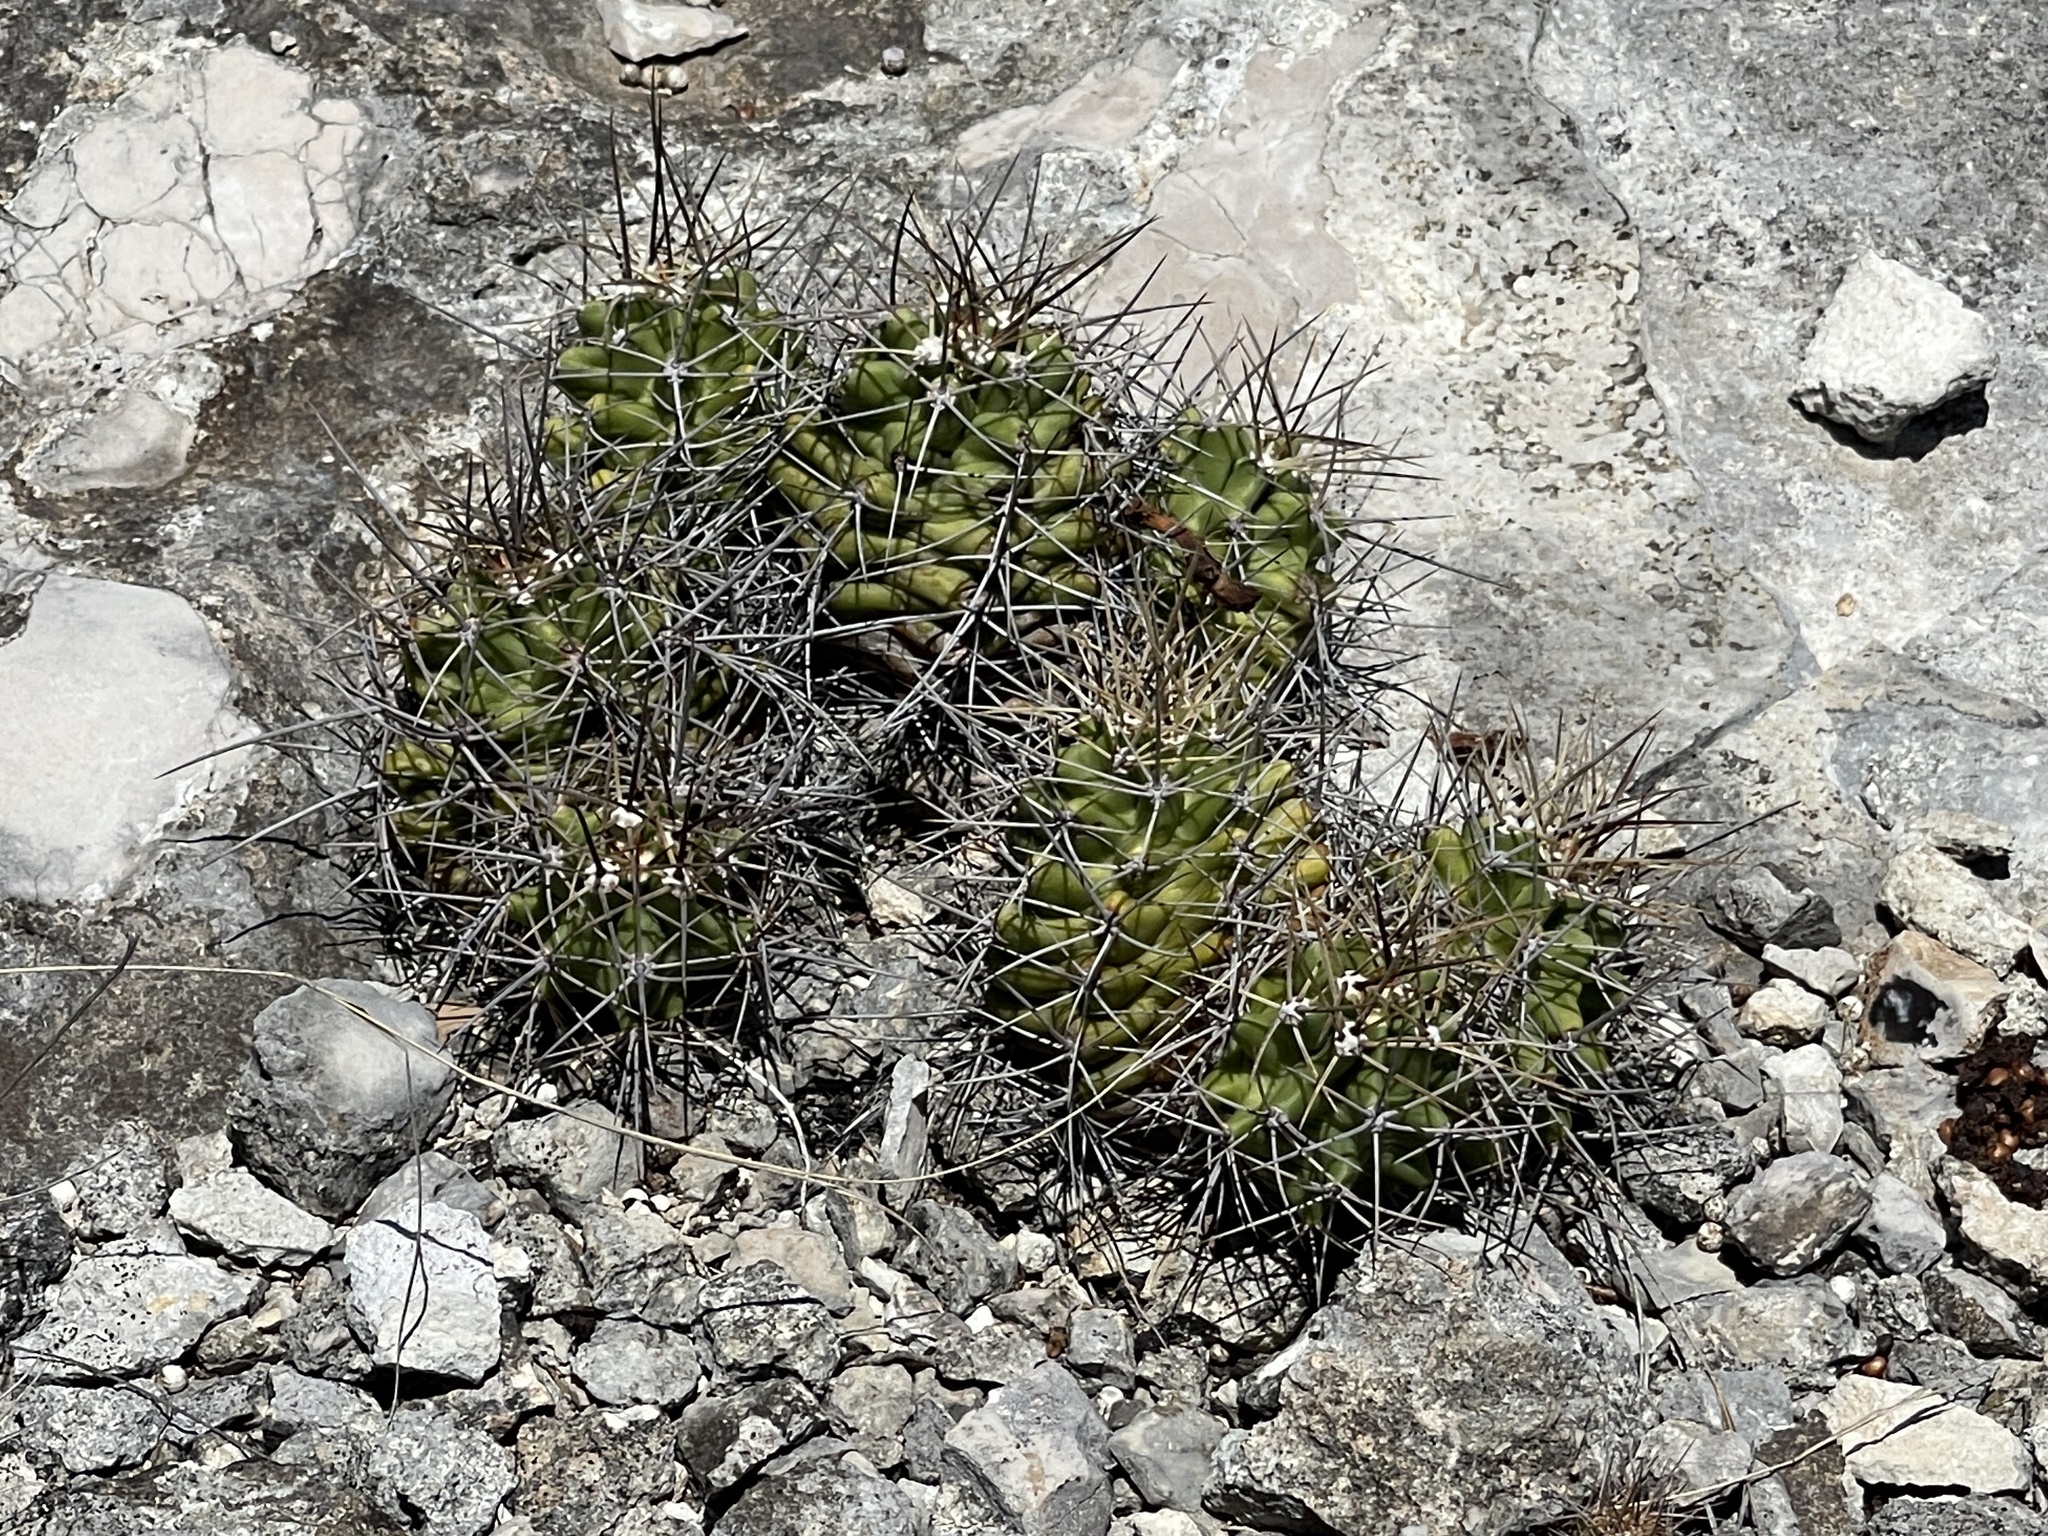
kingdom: Plantae
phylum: Tracheophyta
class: Magnoliopsida
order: Caryophyllales
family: Cactaceae
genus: Echinocereus
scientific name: Echinocereus coccineus
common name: Scarlet hedgehog cactus
